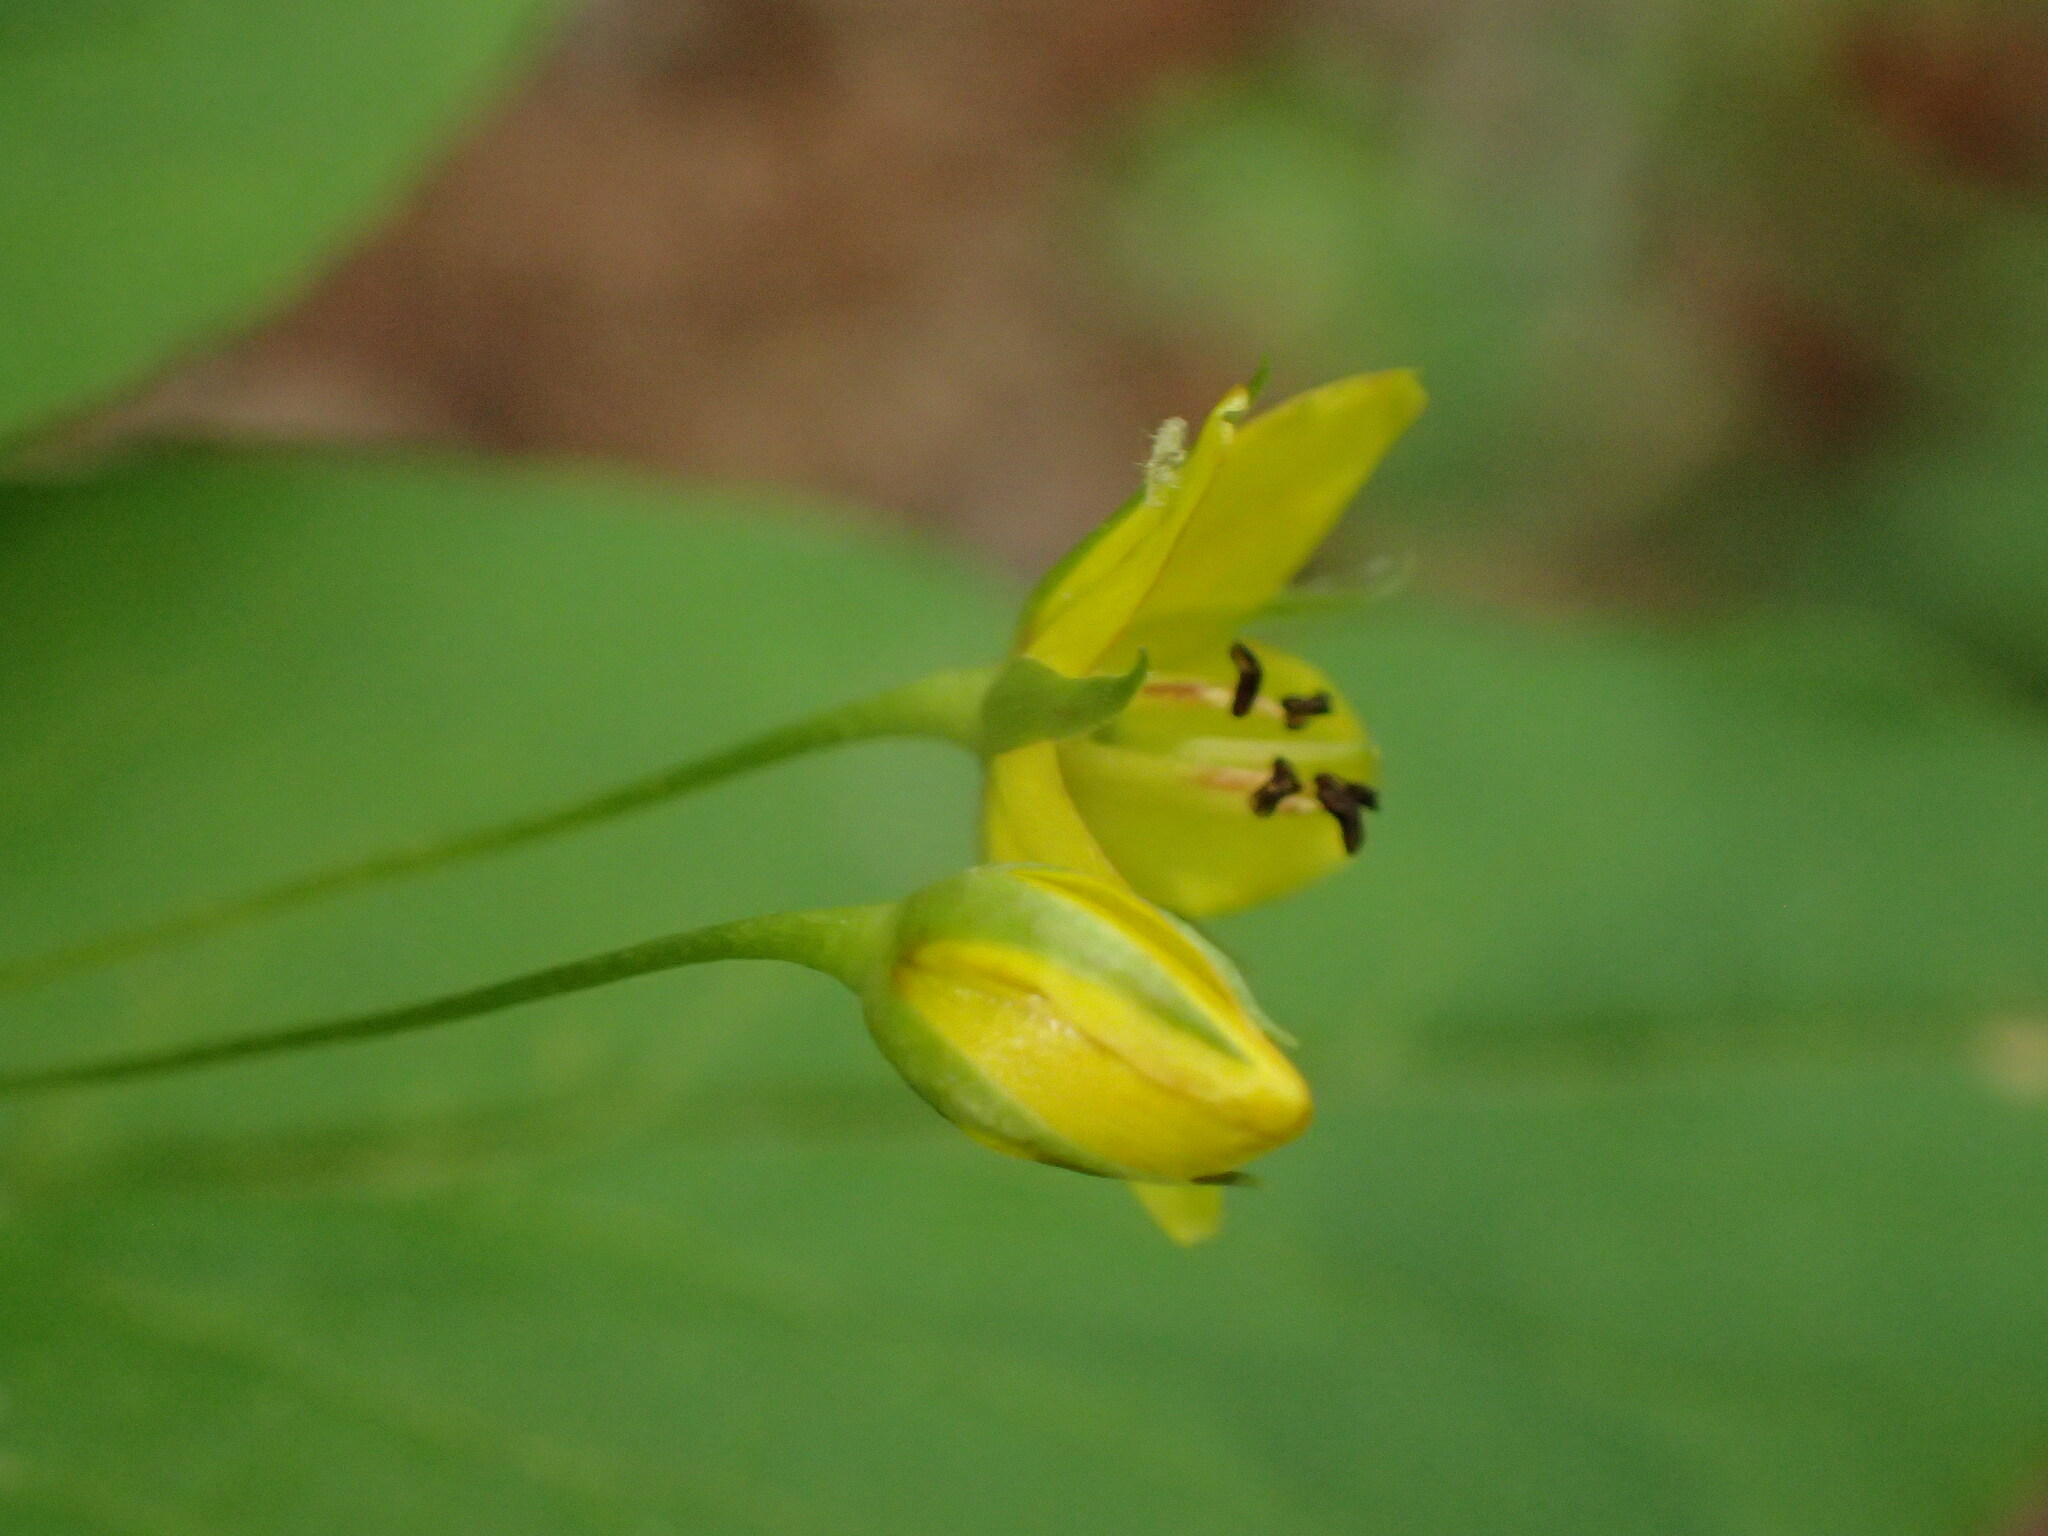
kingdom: Plantae
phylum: Tracheophyta
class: Magnoliopsida
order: Ericales
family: Primulaceae
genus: Lysimachia
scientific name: Lysimachia quadrifolia
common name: Whorled loosestrife
